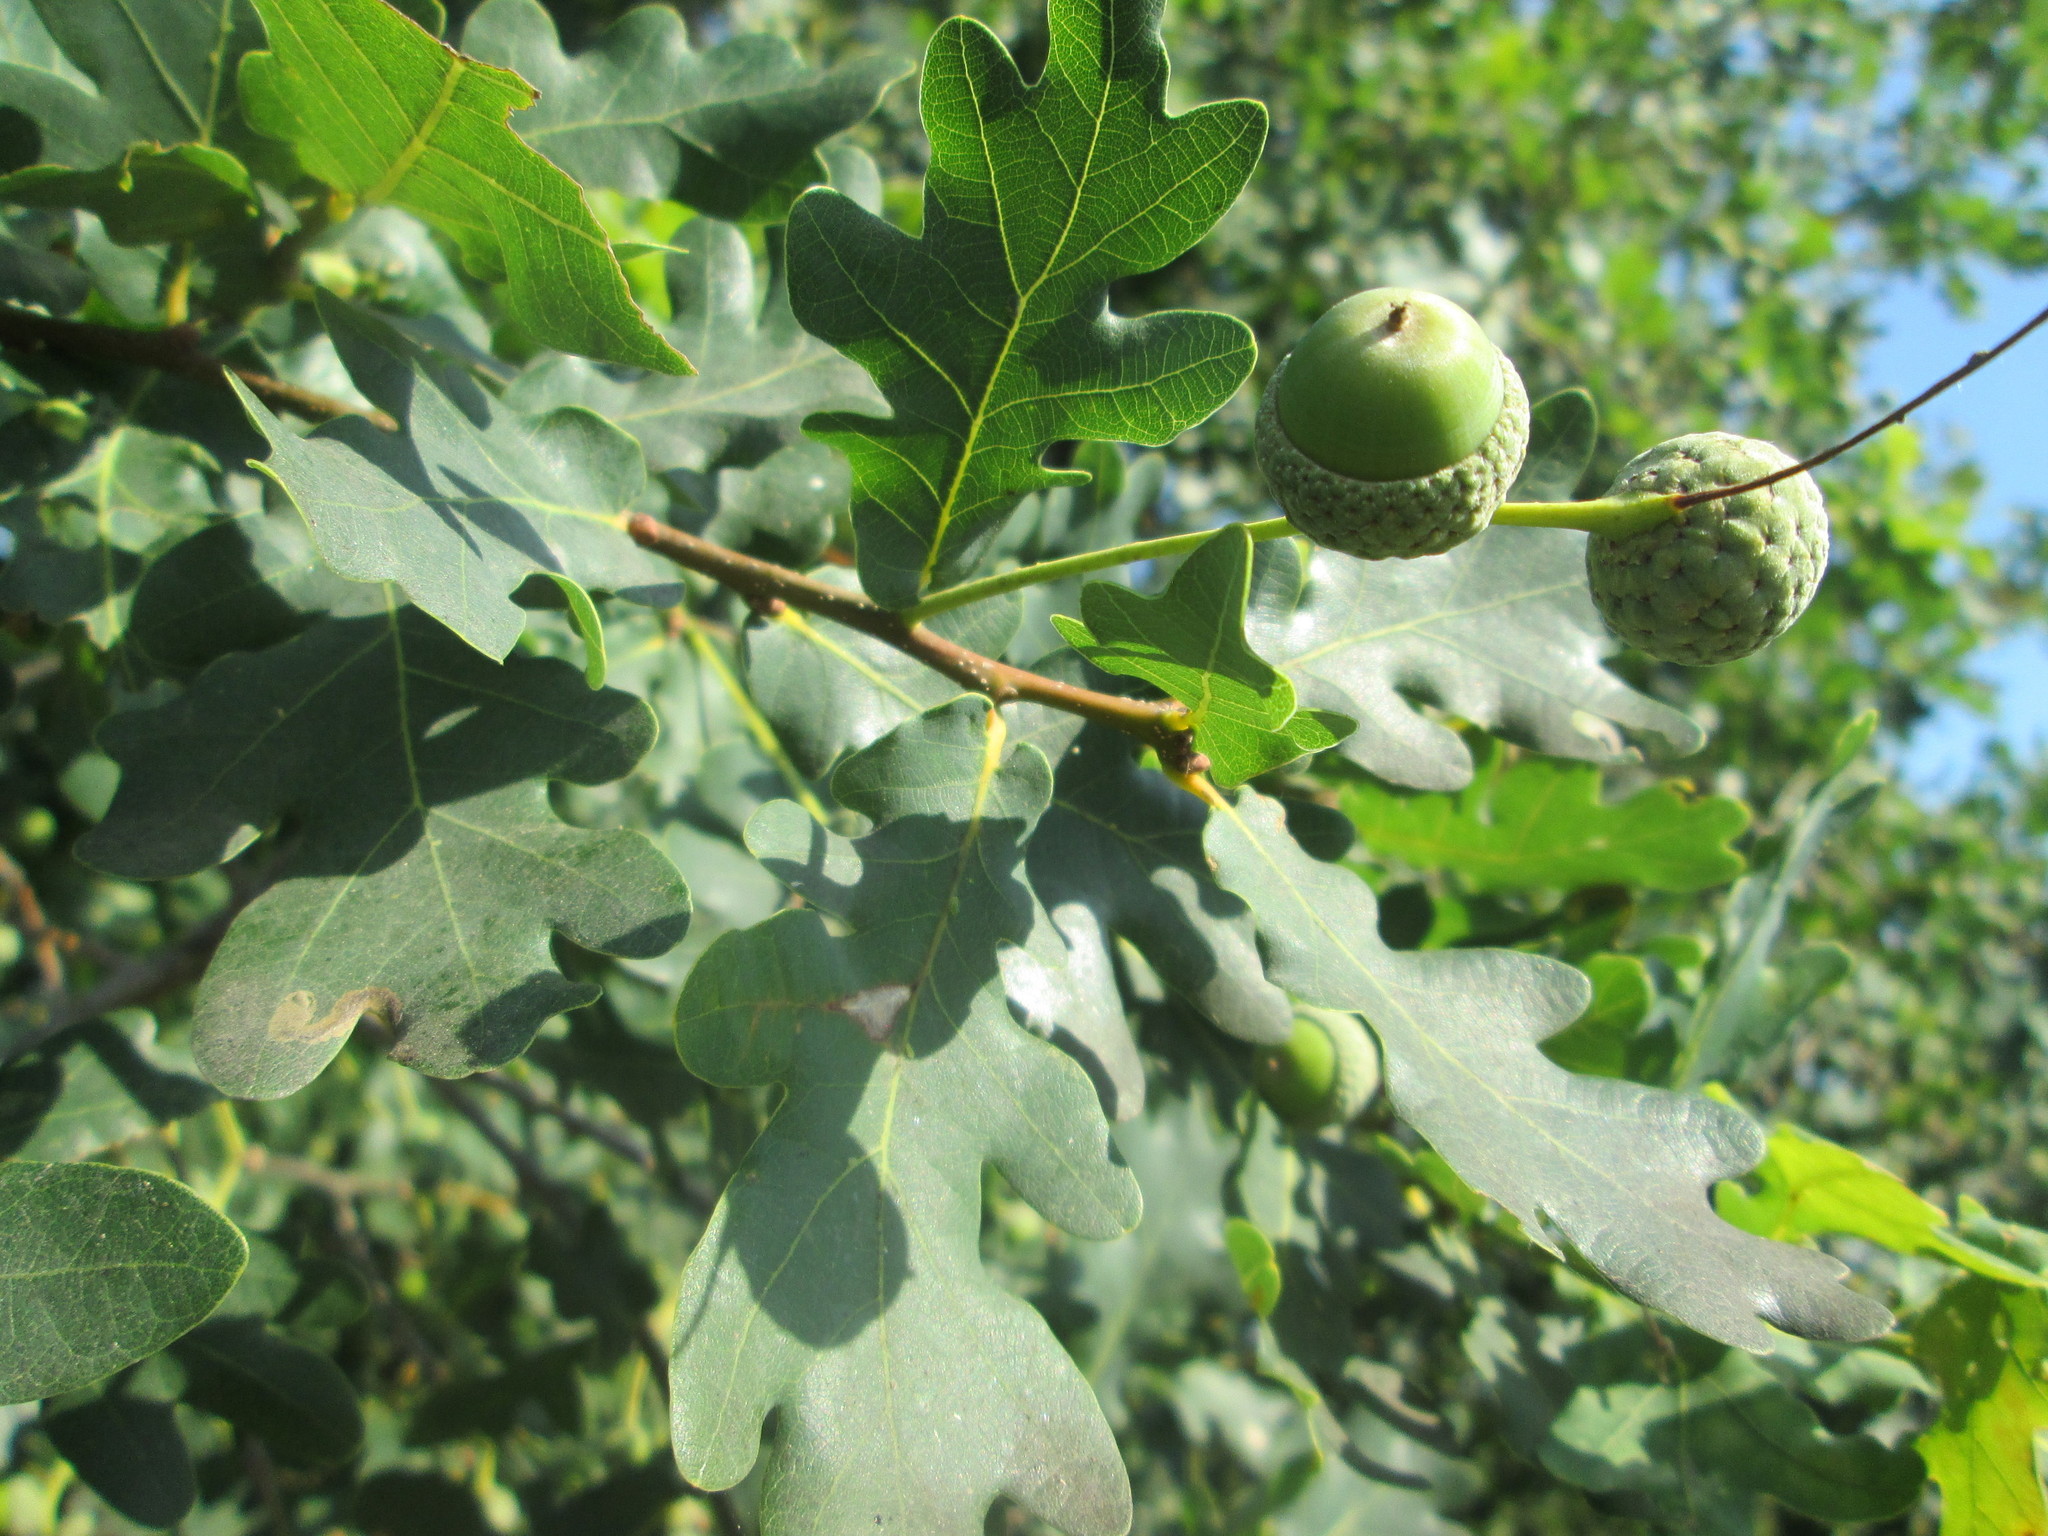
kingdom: Plantae
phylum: Tracheophyta
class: Magnoliopsida
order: Fagales
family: Fagaceae
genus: Quercus
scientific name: Quercus robur
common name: Pedunculate oak
